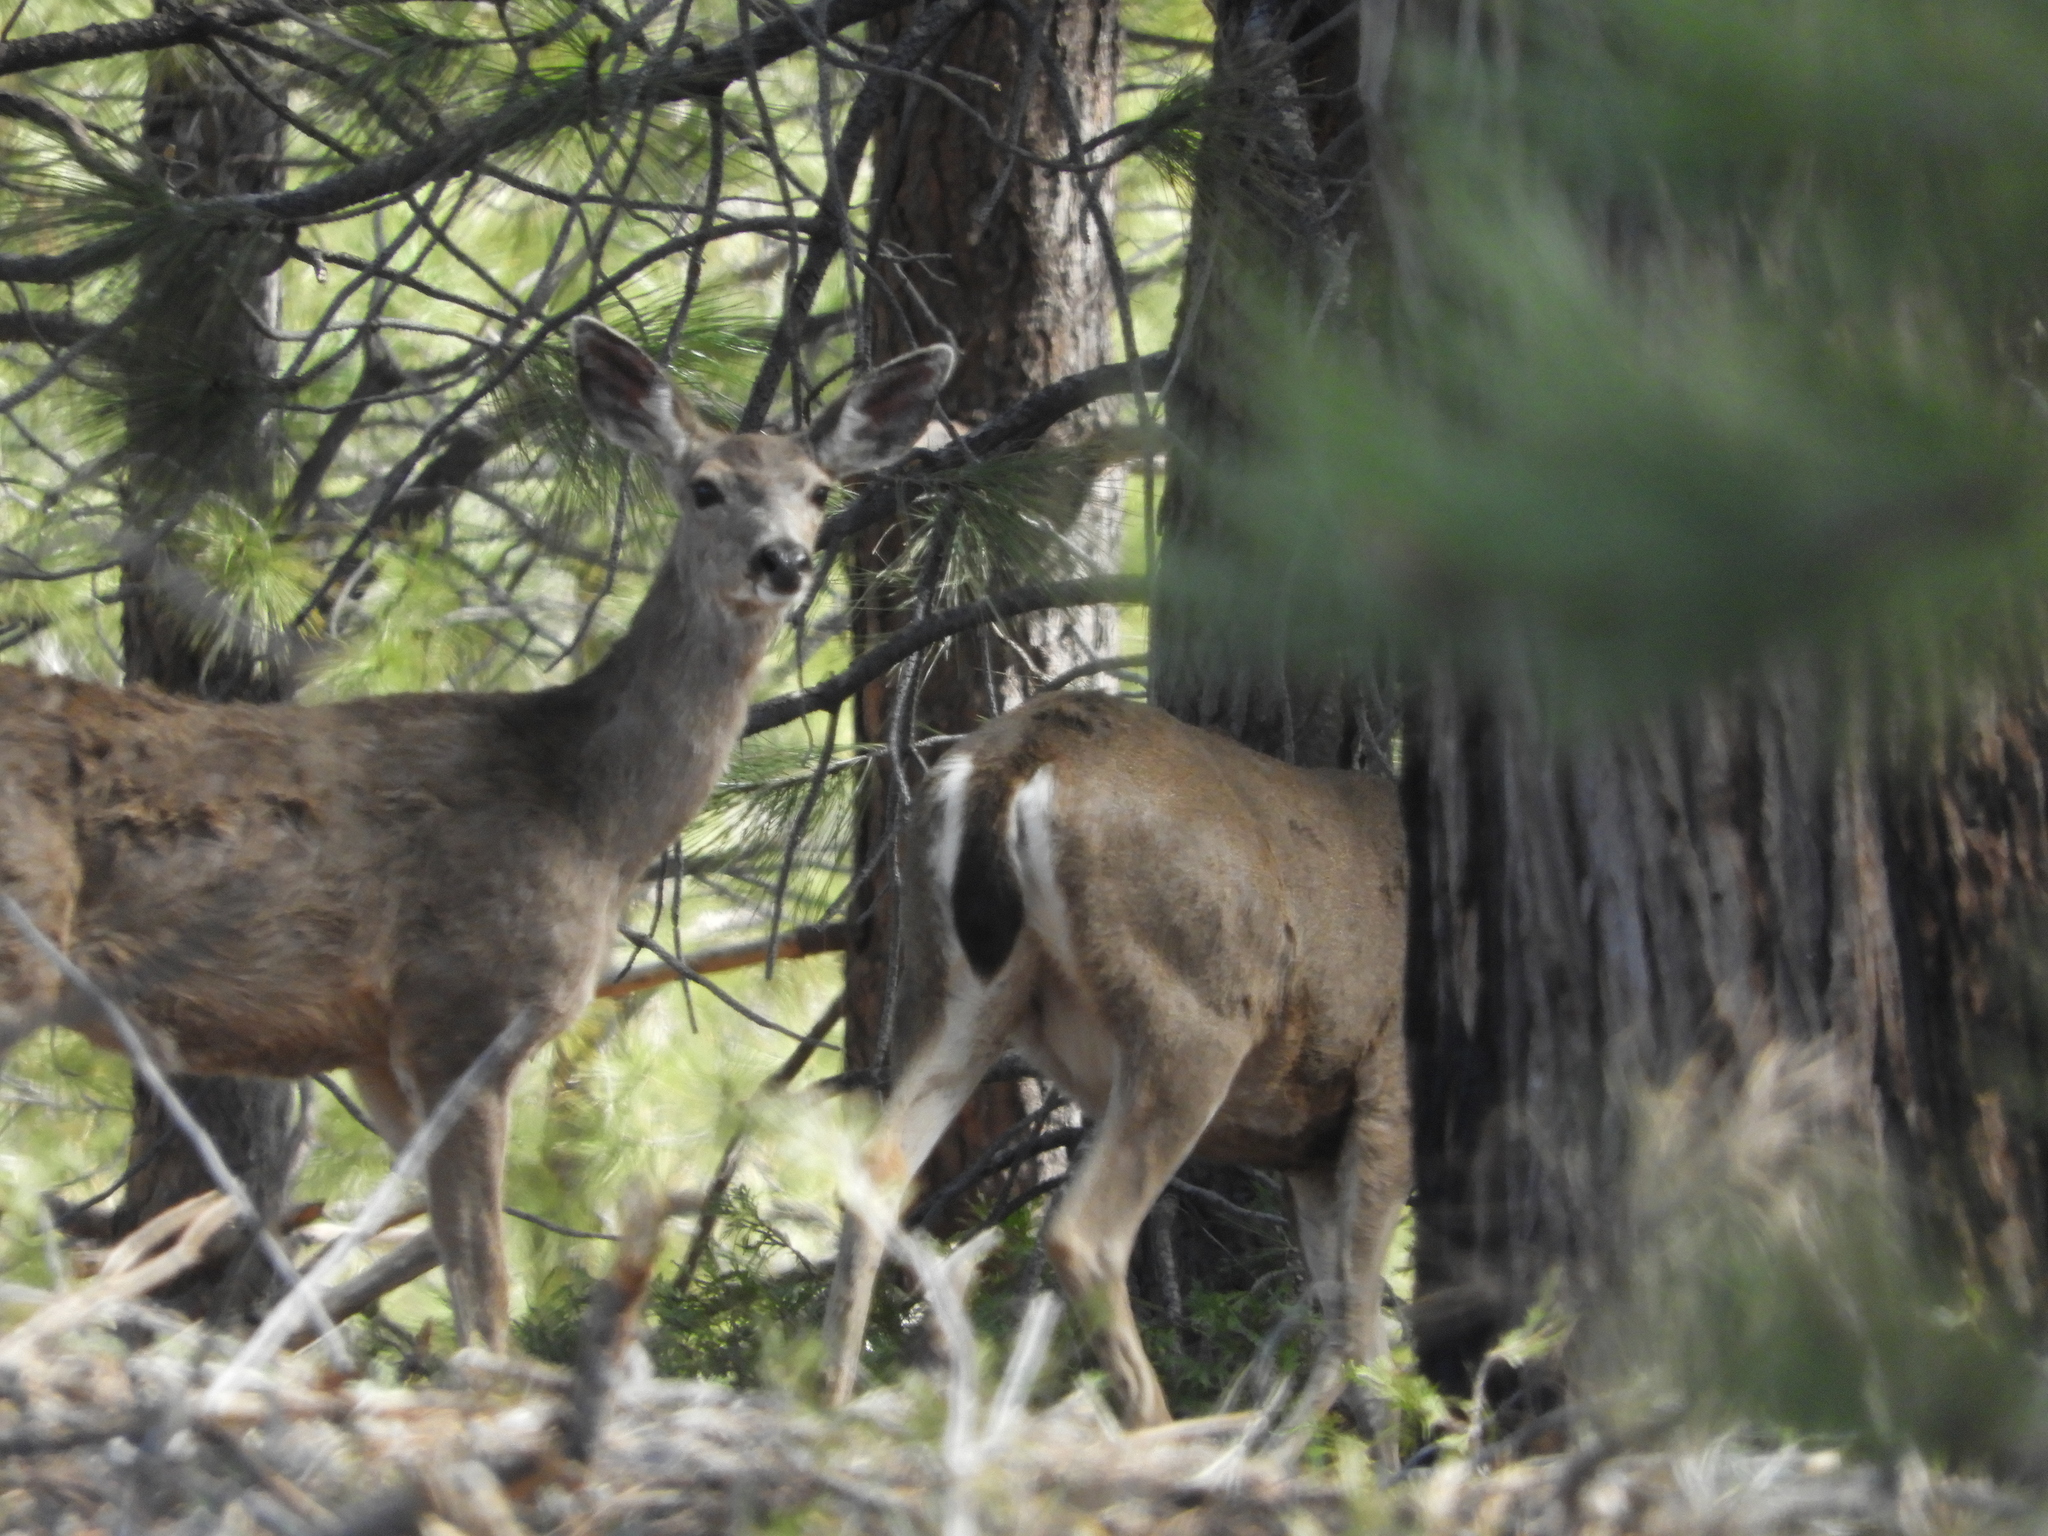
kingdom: Animalia
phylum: Chordata
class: Mammalia
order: Artiodactyla
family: Cervidae
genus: Odocoileus
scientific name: Odocoileus hemionus
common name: Mule deer
